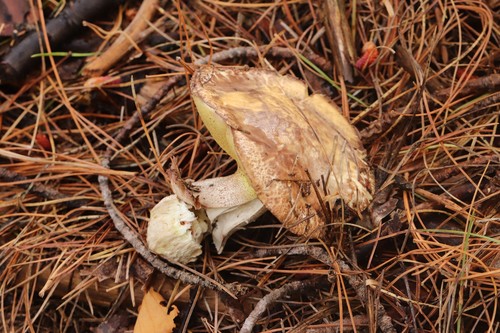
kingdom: Fungi
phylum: Basidiomycota
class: Agaricomycetes
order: Boletales
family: Suillaceae
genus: Suillus
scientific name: Suillus placidus
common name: Slippery white bolete
